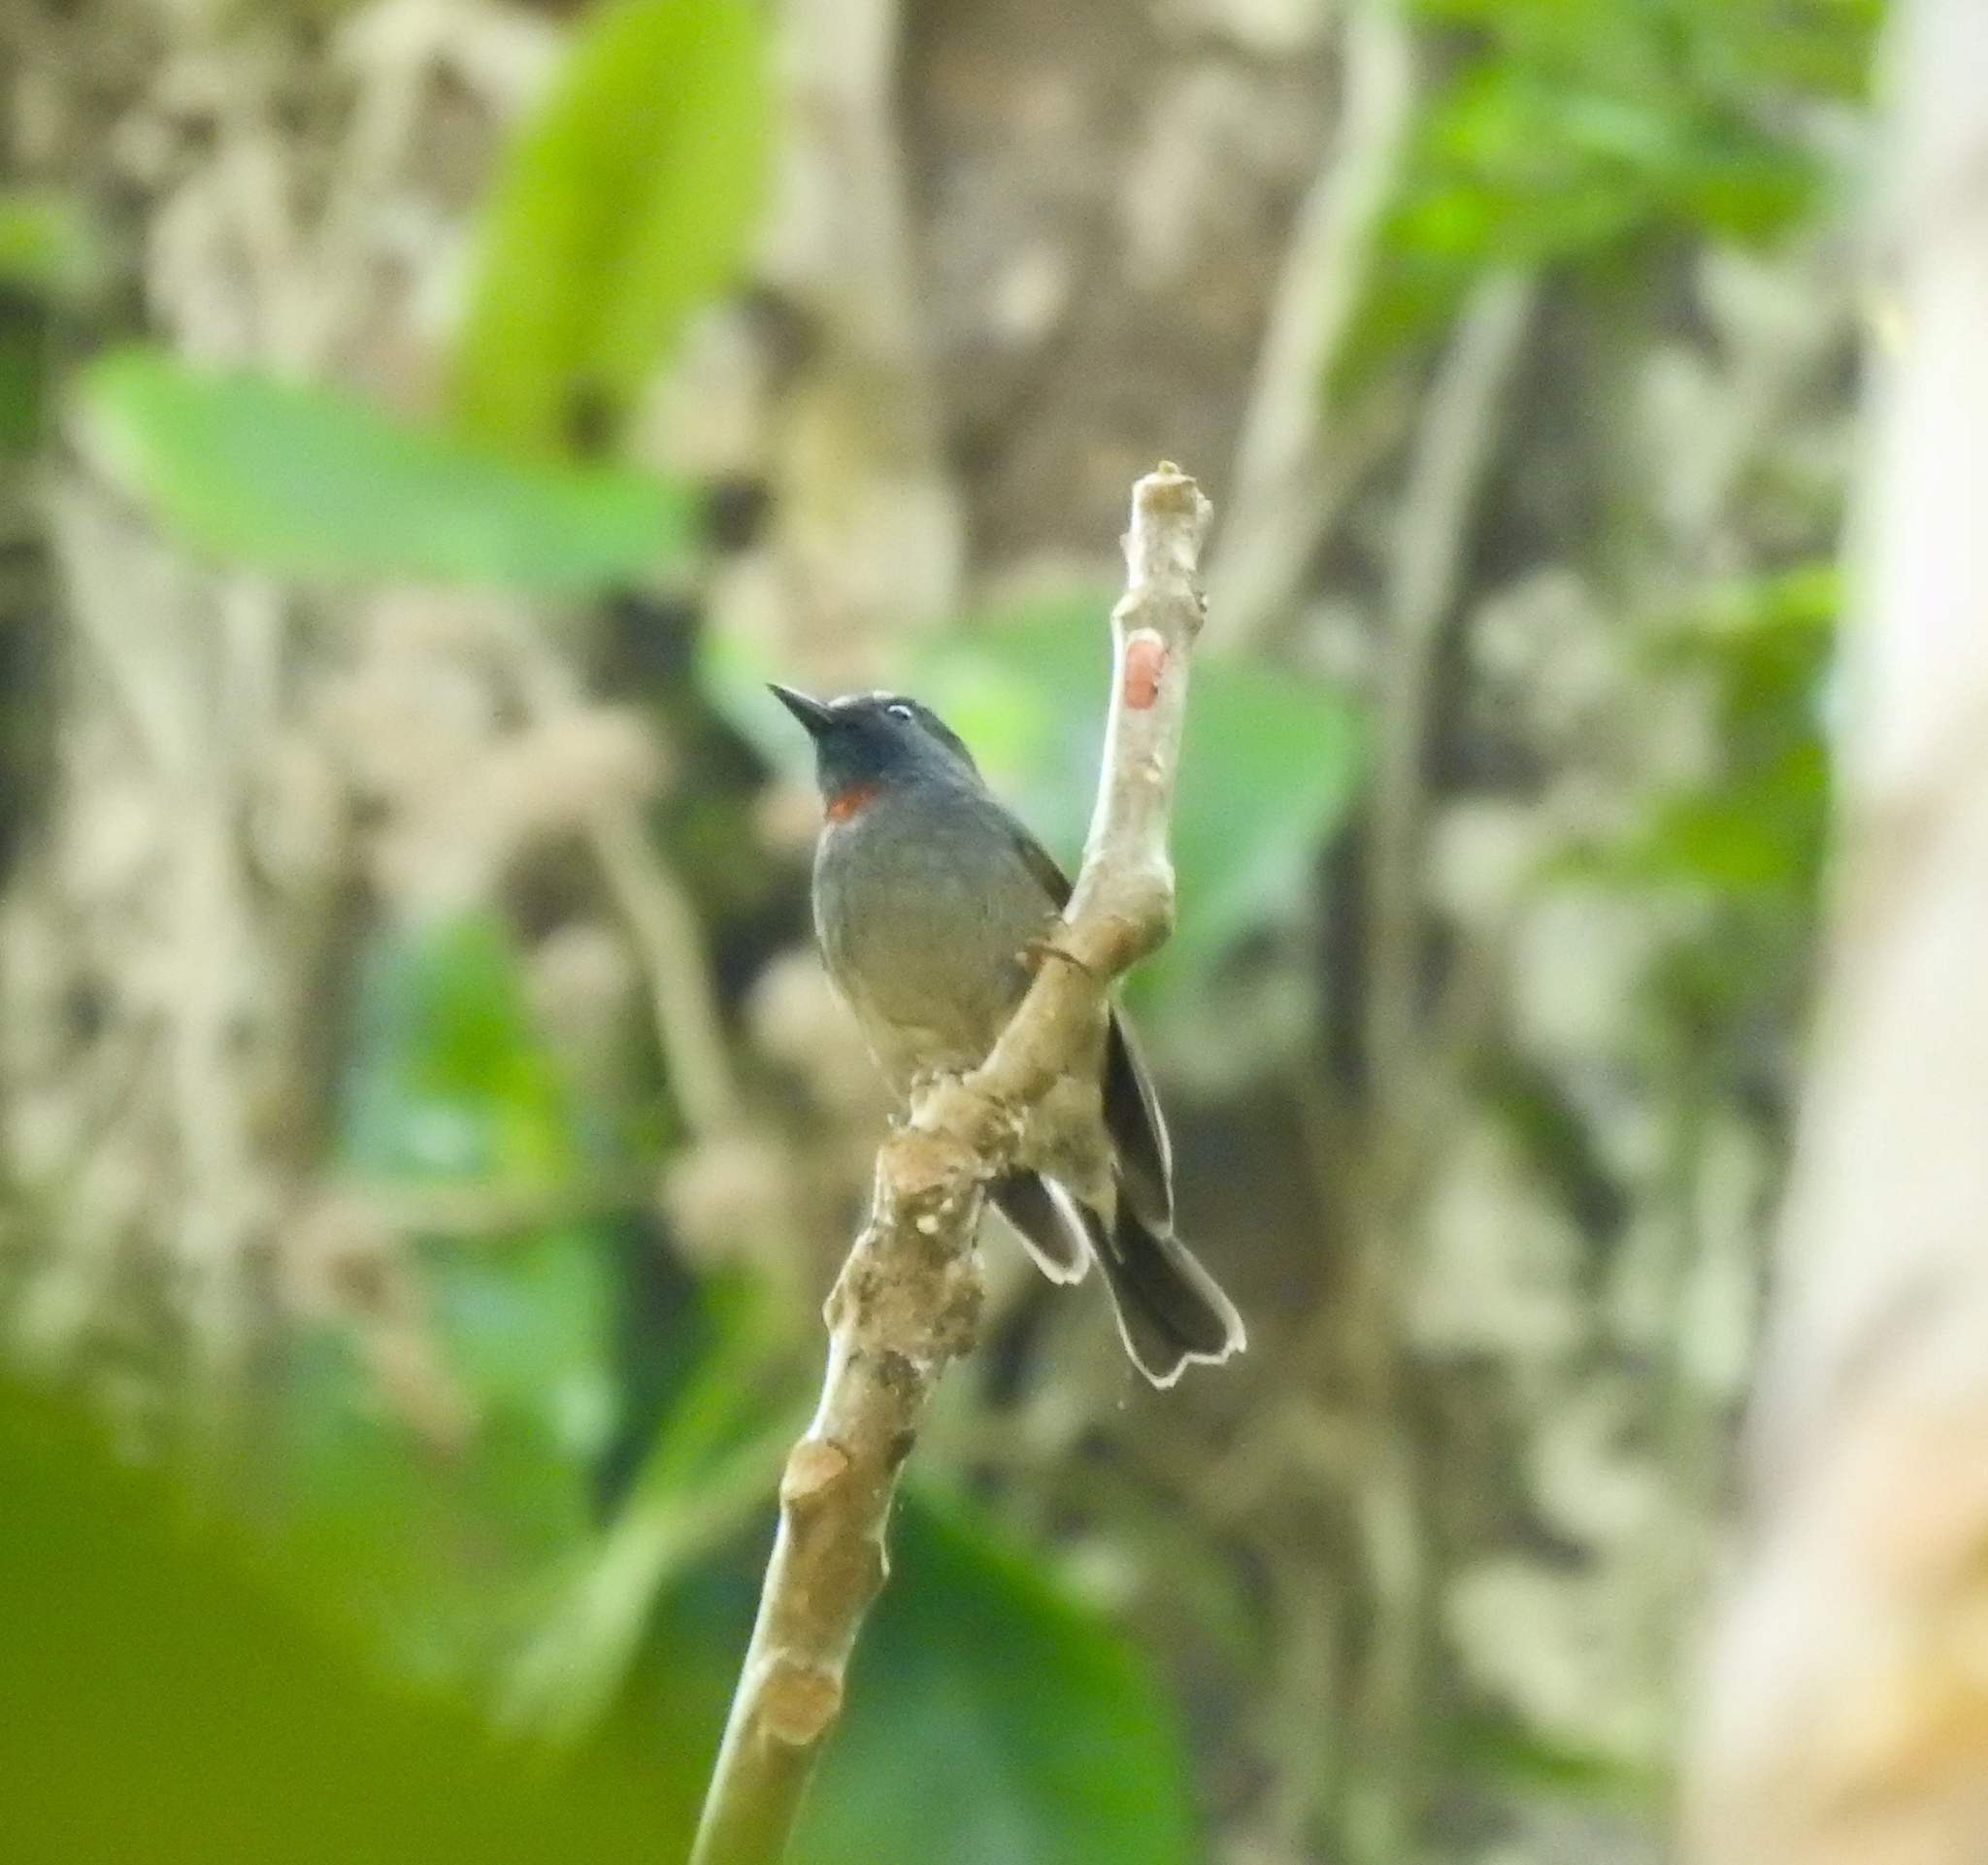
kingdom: Animalia
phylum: Chordata
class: Aves
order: Passeriformes
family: Muscicapidae
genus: Ficedula
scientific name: Ficedula strophiata
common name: Rufous-gorgeted flycatcher
